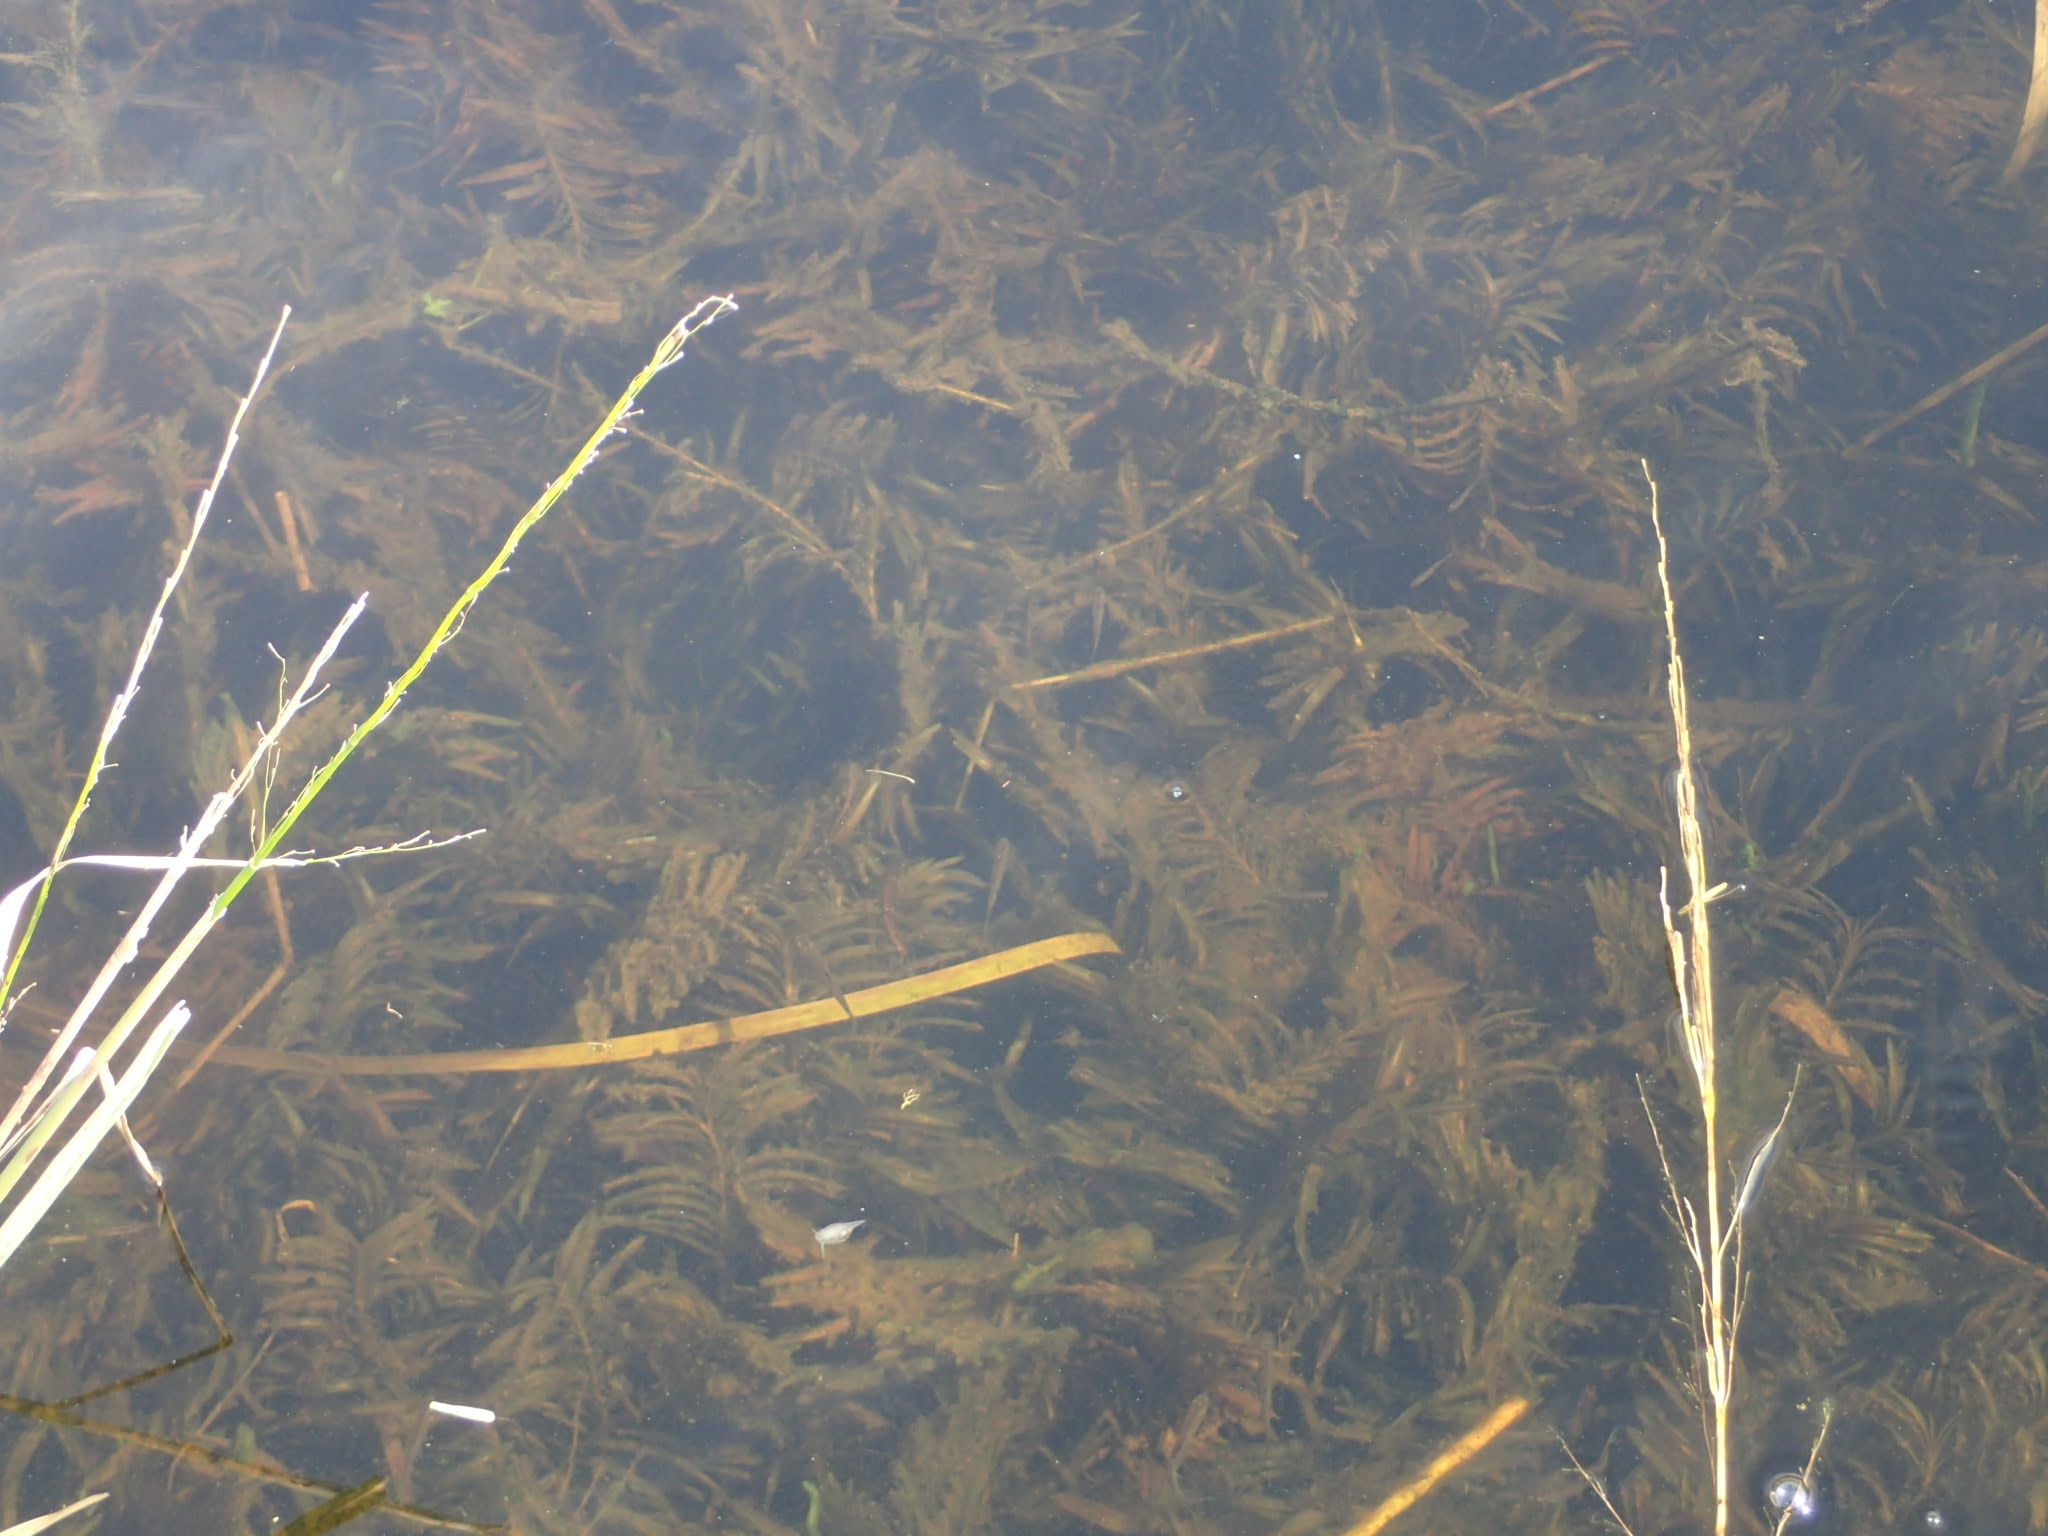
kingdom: Plantae
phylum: Tracheophyta
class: Liliopsida
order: Alismatales
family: Potamogetonaceae
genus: Potamogeton
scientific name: Potamogeton robbinsii
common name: Fern pondweed
